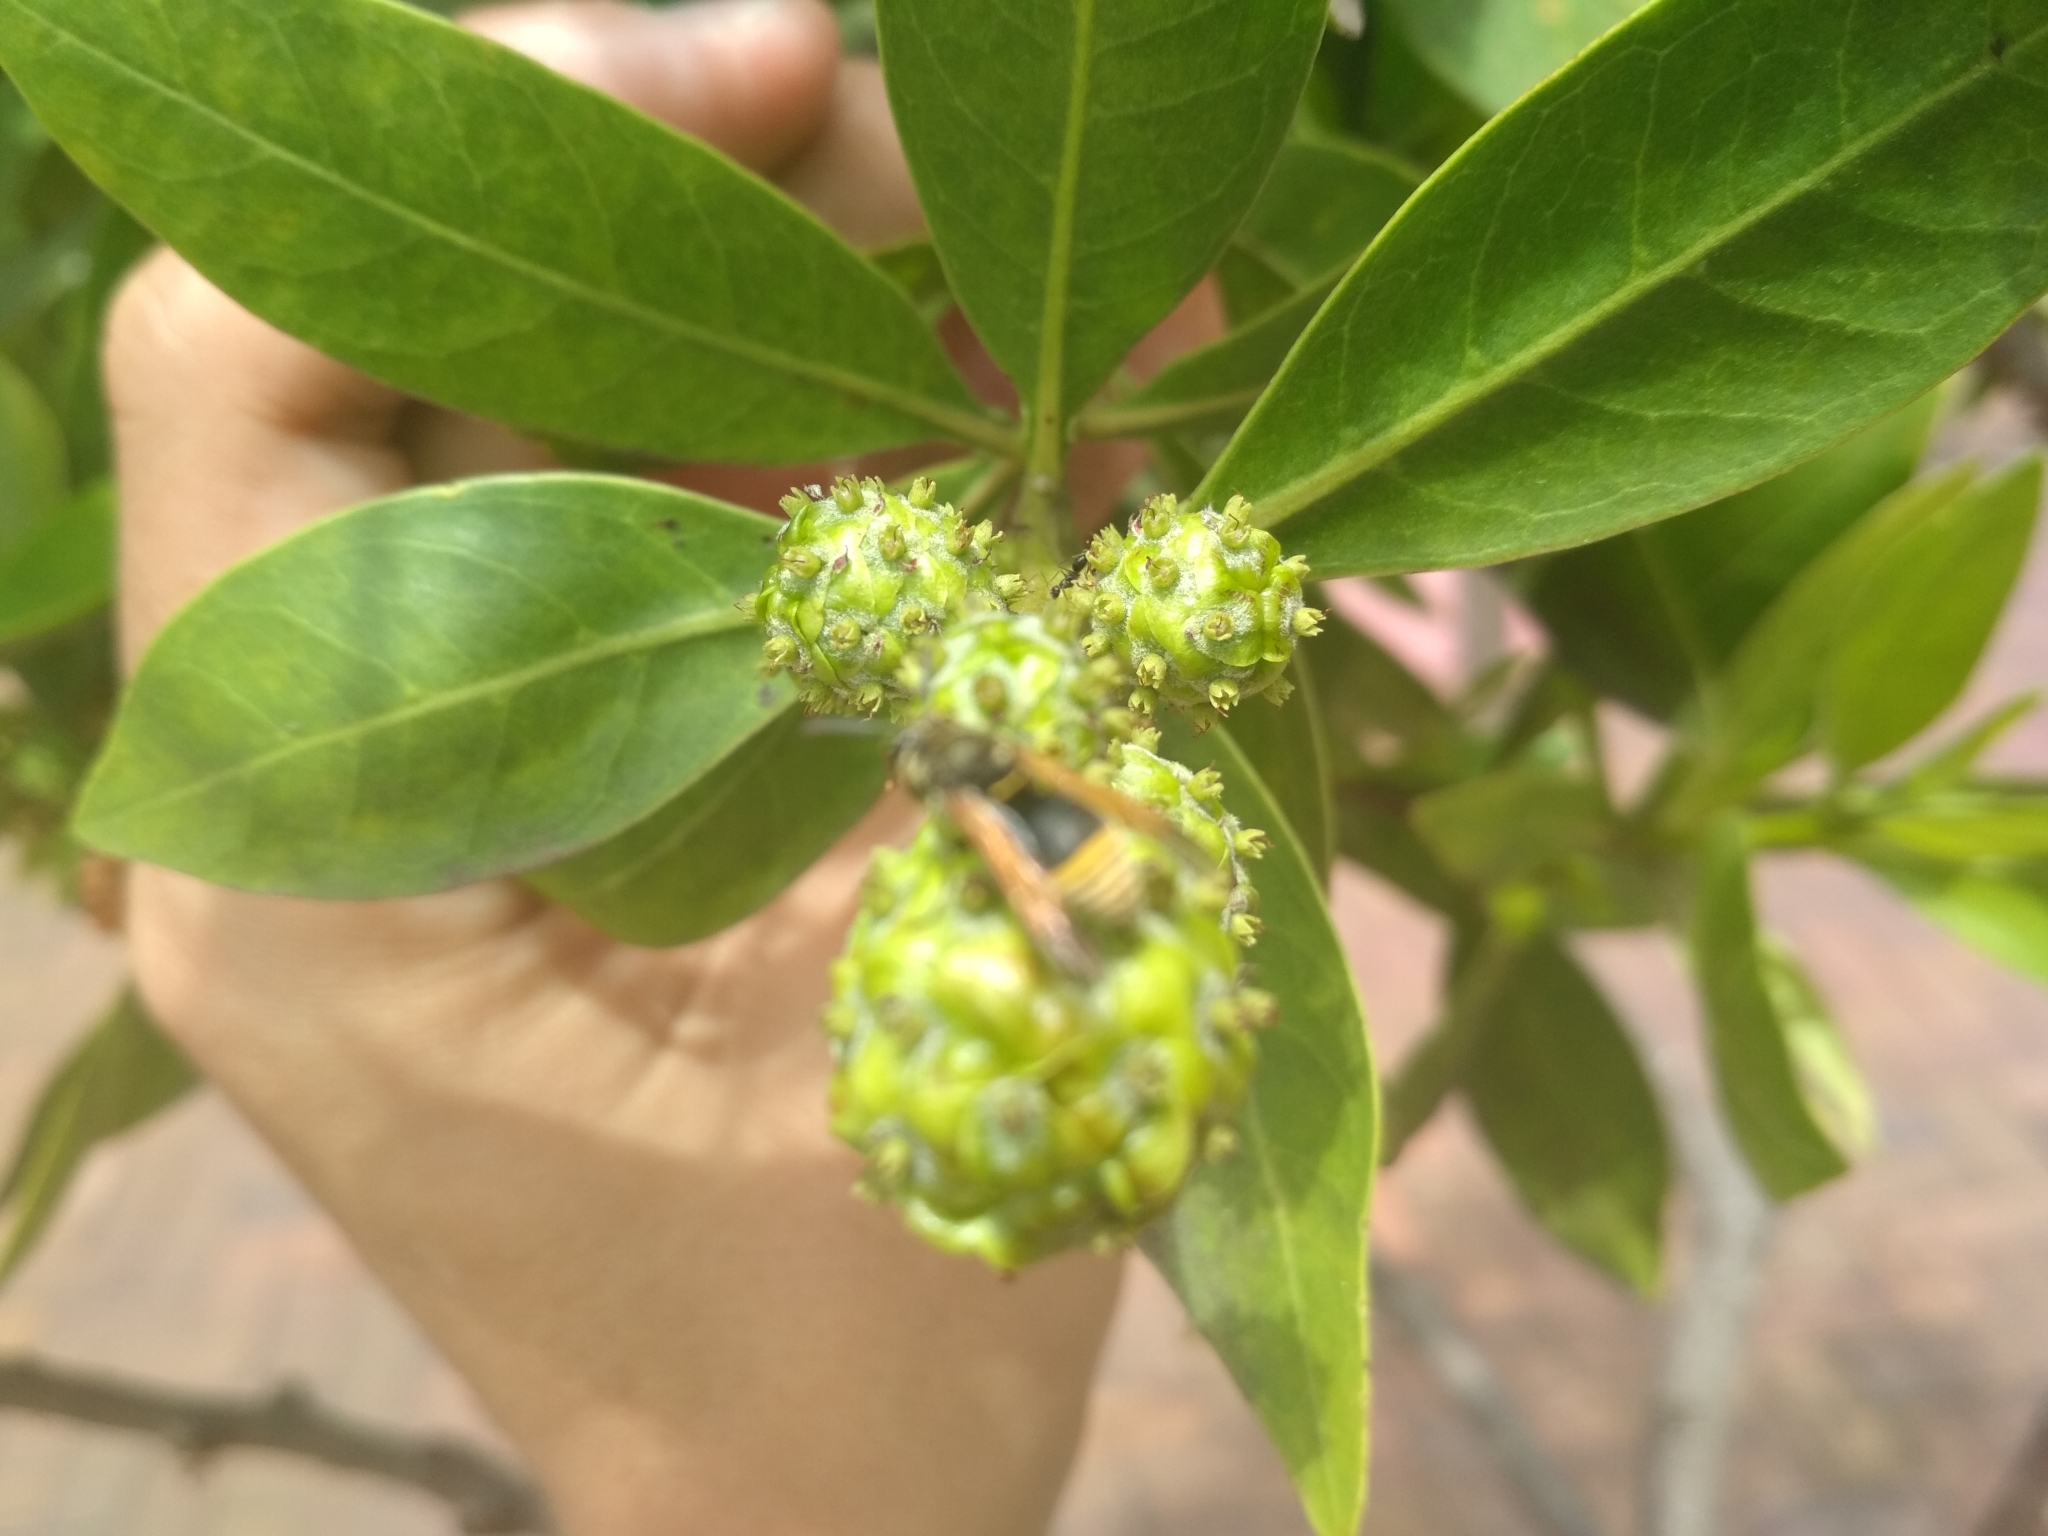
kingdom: Animalia
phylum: Arthropoda
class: Insecta
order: Hymenoptera
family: Vespidae
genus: Brachygastra
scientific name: Brachygastra lecheguana
